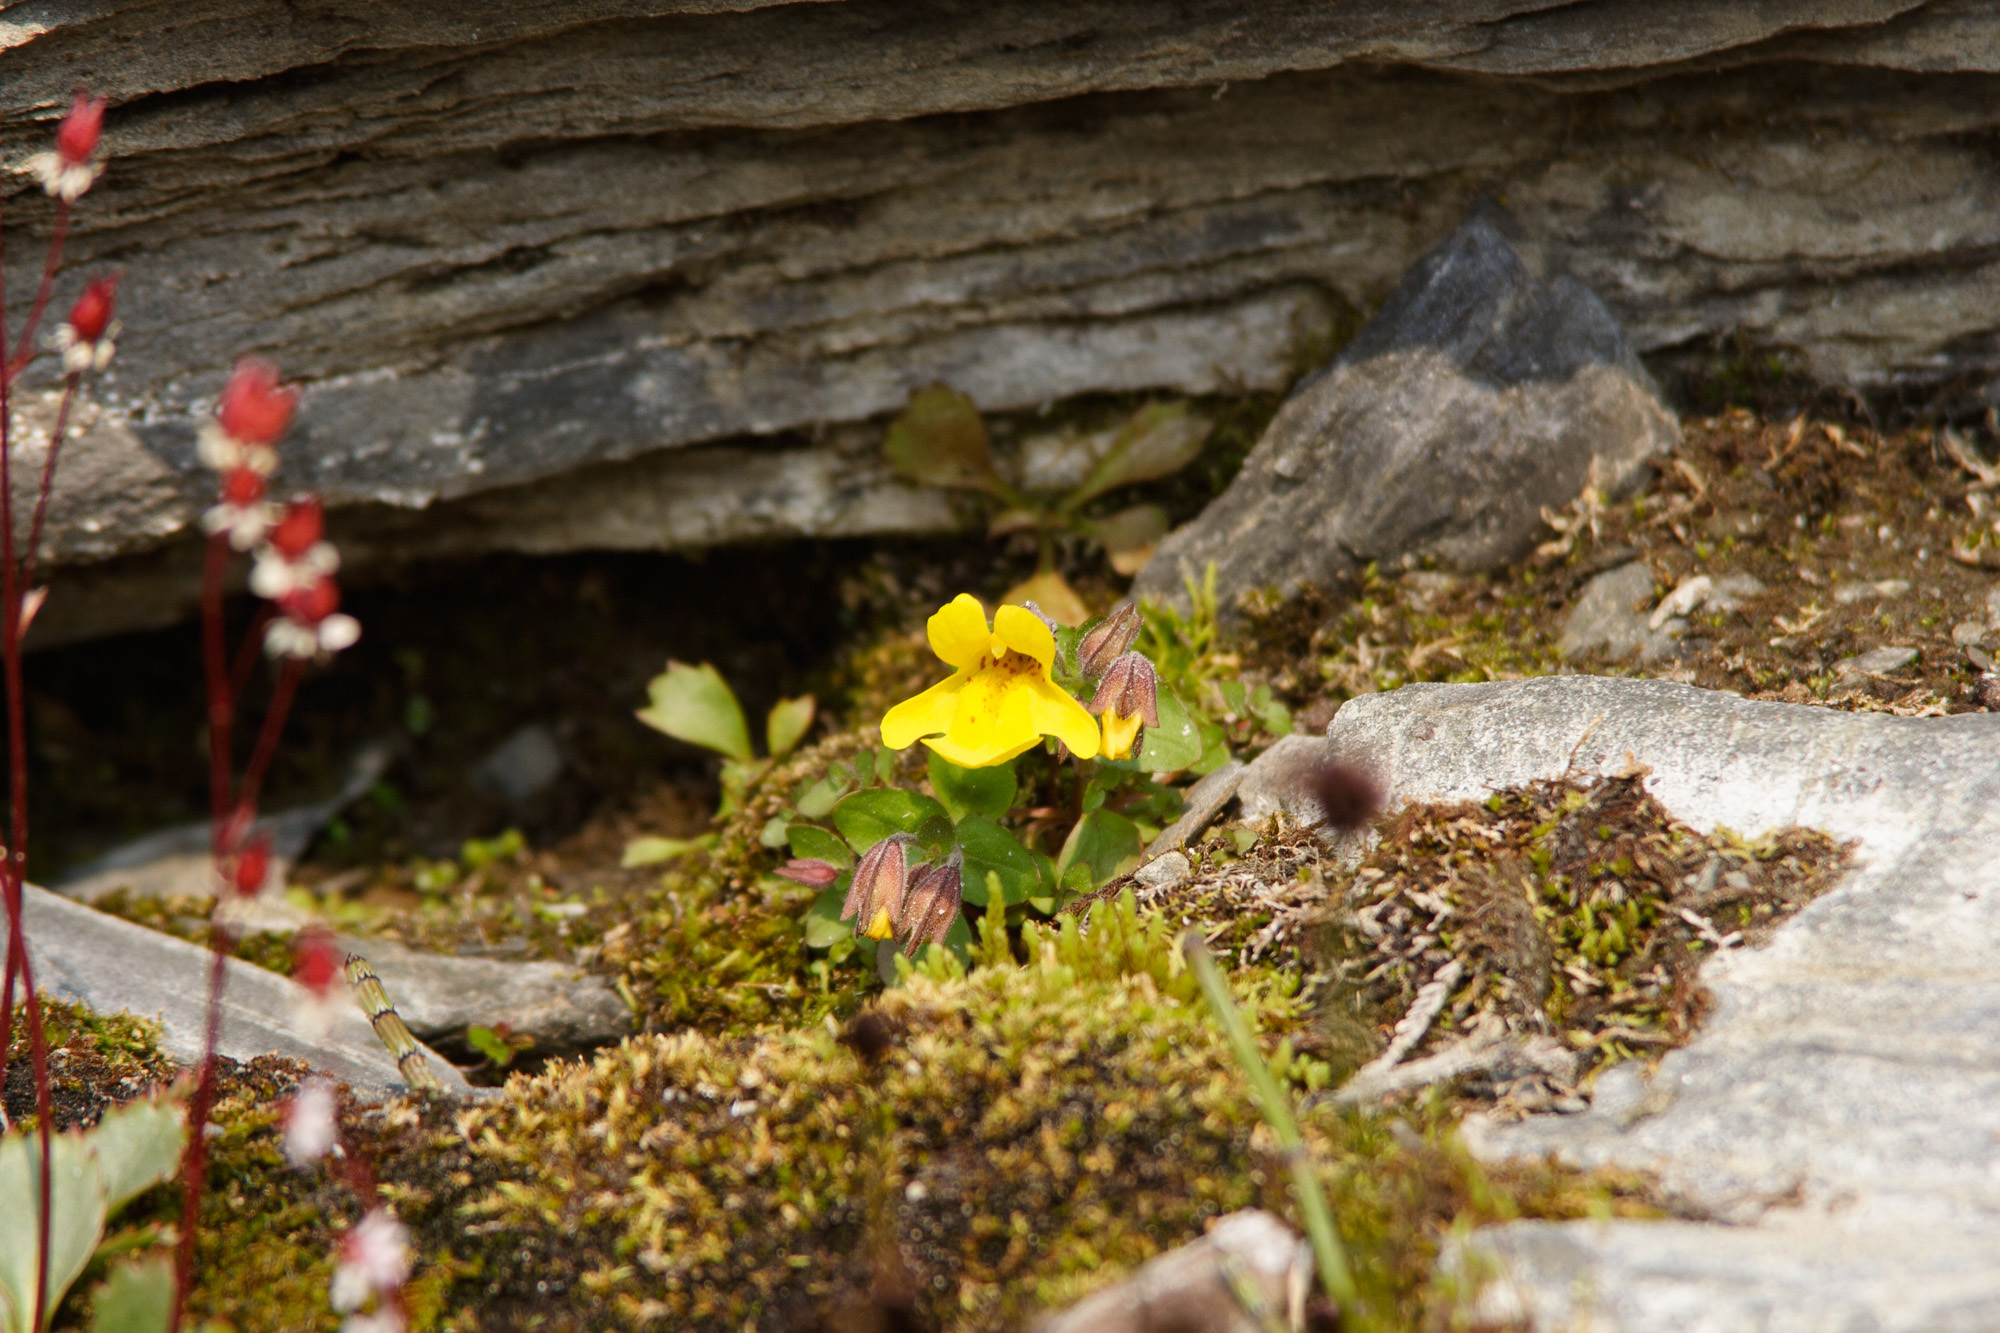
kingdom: Plantae
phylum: Tracheophyta
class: Magnoliopsida
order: Lamiales
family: Phrymaceae
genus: Erythranthe
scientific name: Erythranthe guttata
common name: Monkeyflower
